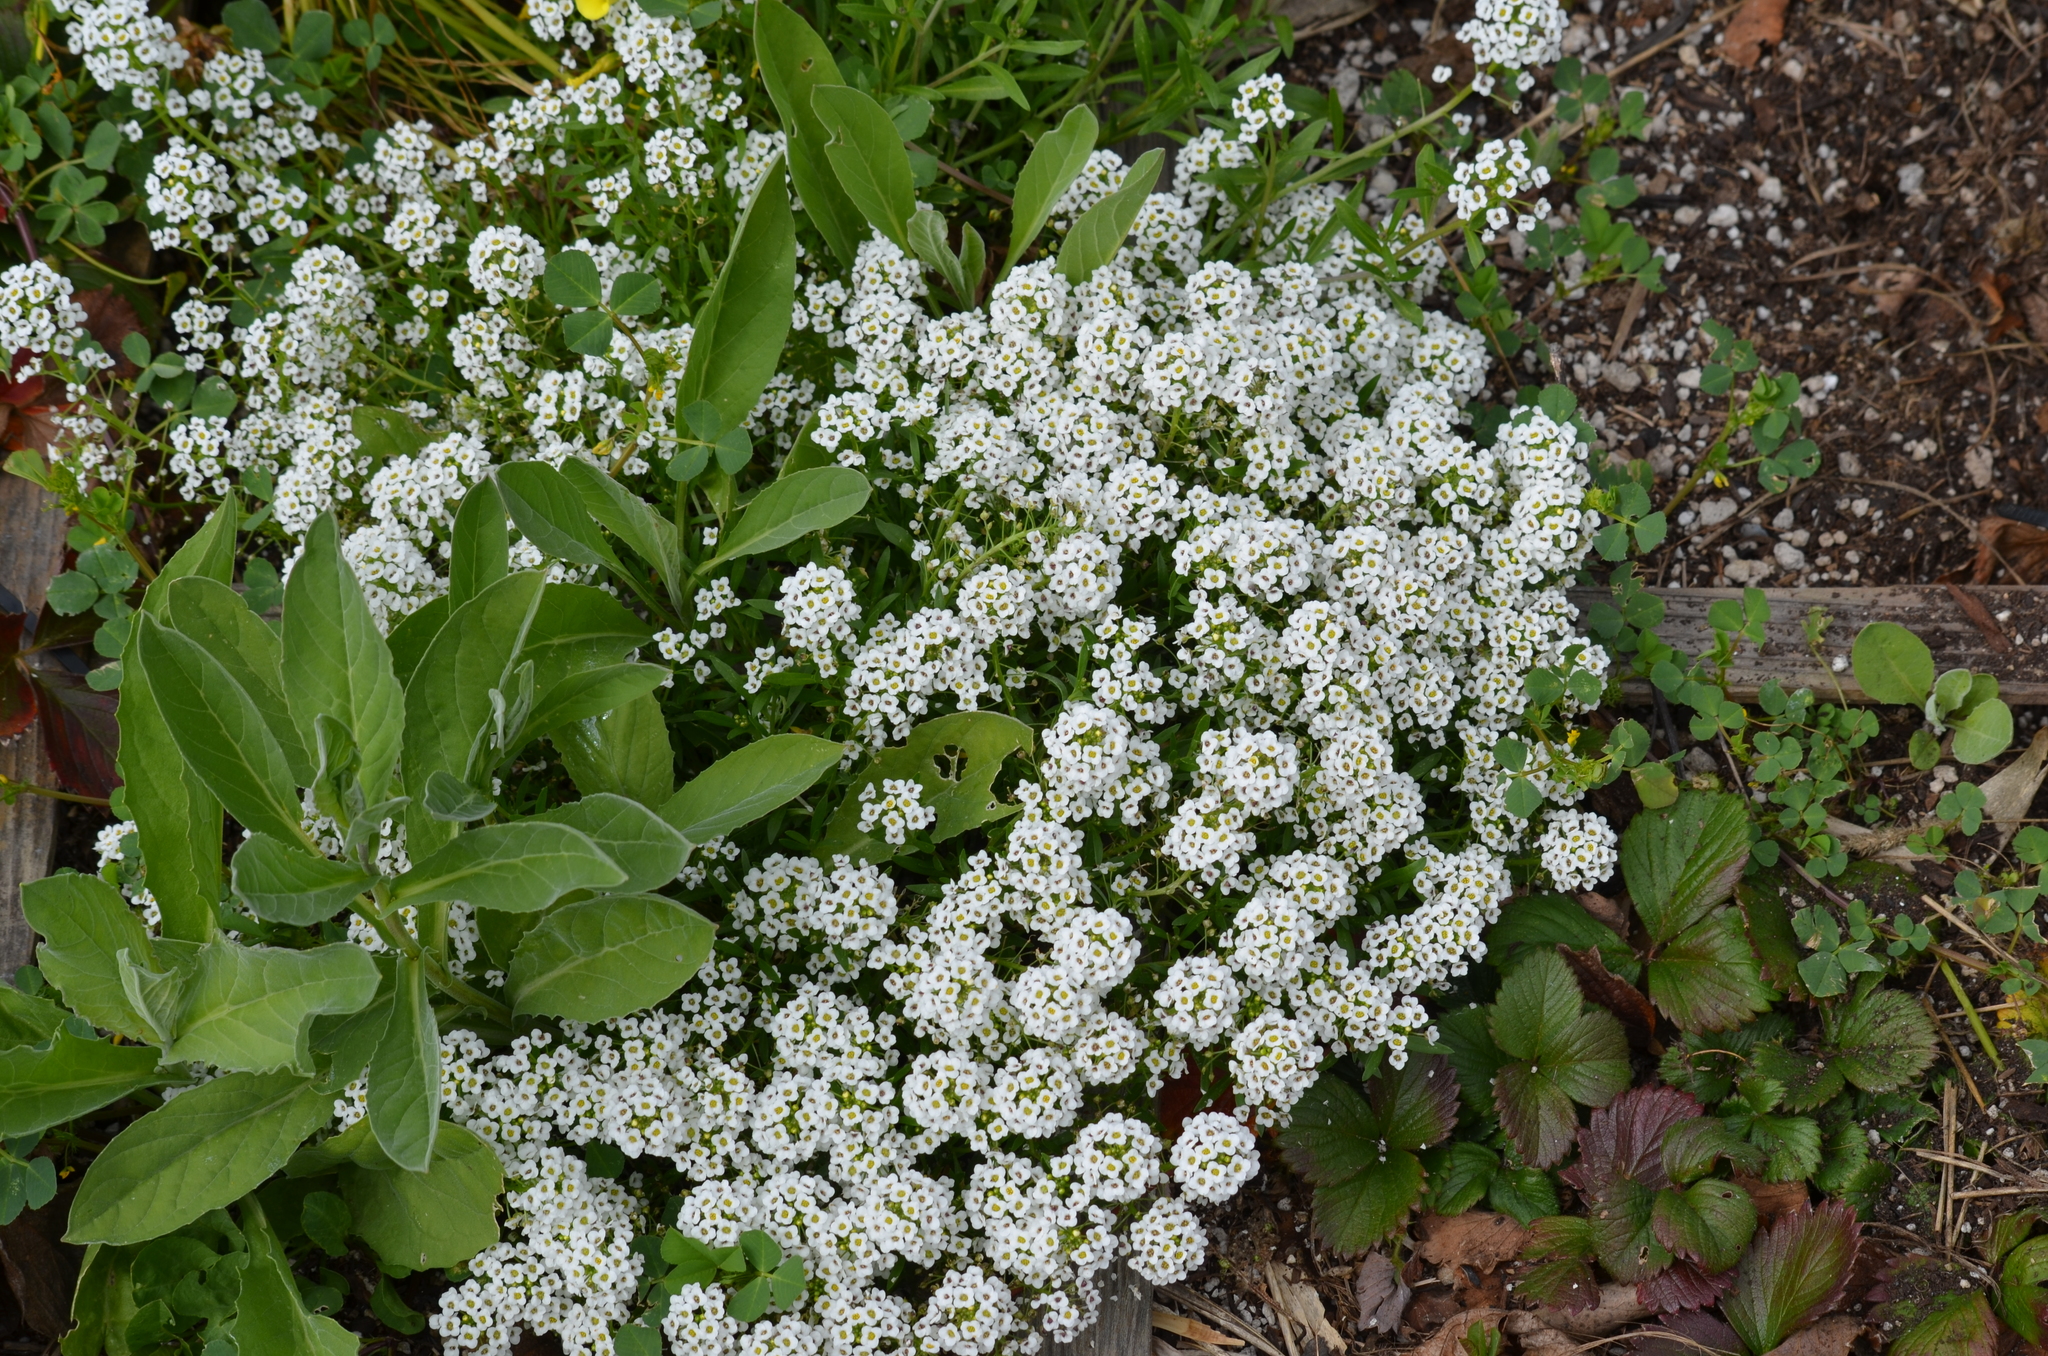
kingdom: Plantae
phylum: Tracheophyta
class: Magnoliopsida
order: Brassicales
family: Brassicaceae
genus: Lobularia
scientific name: Lobularia maritima
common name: Sweet alison
